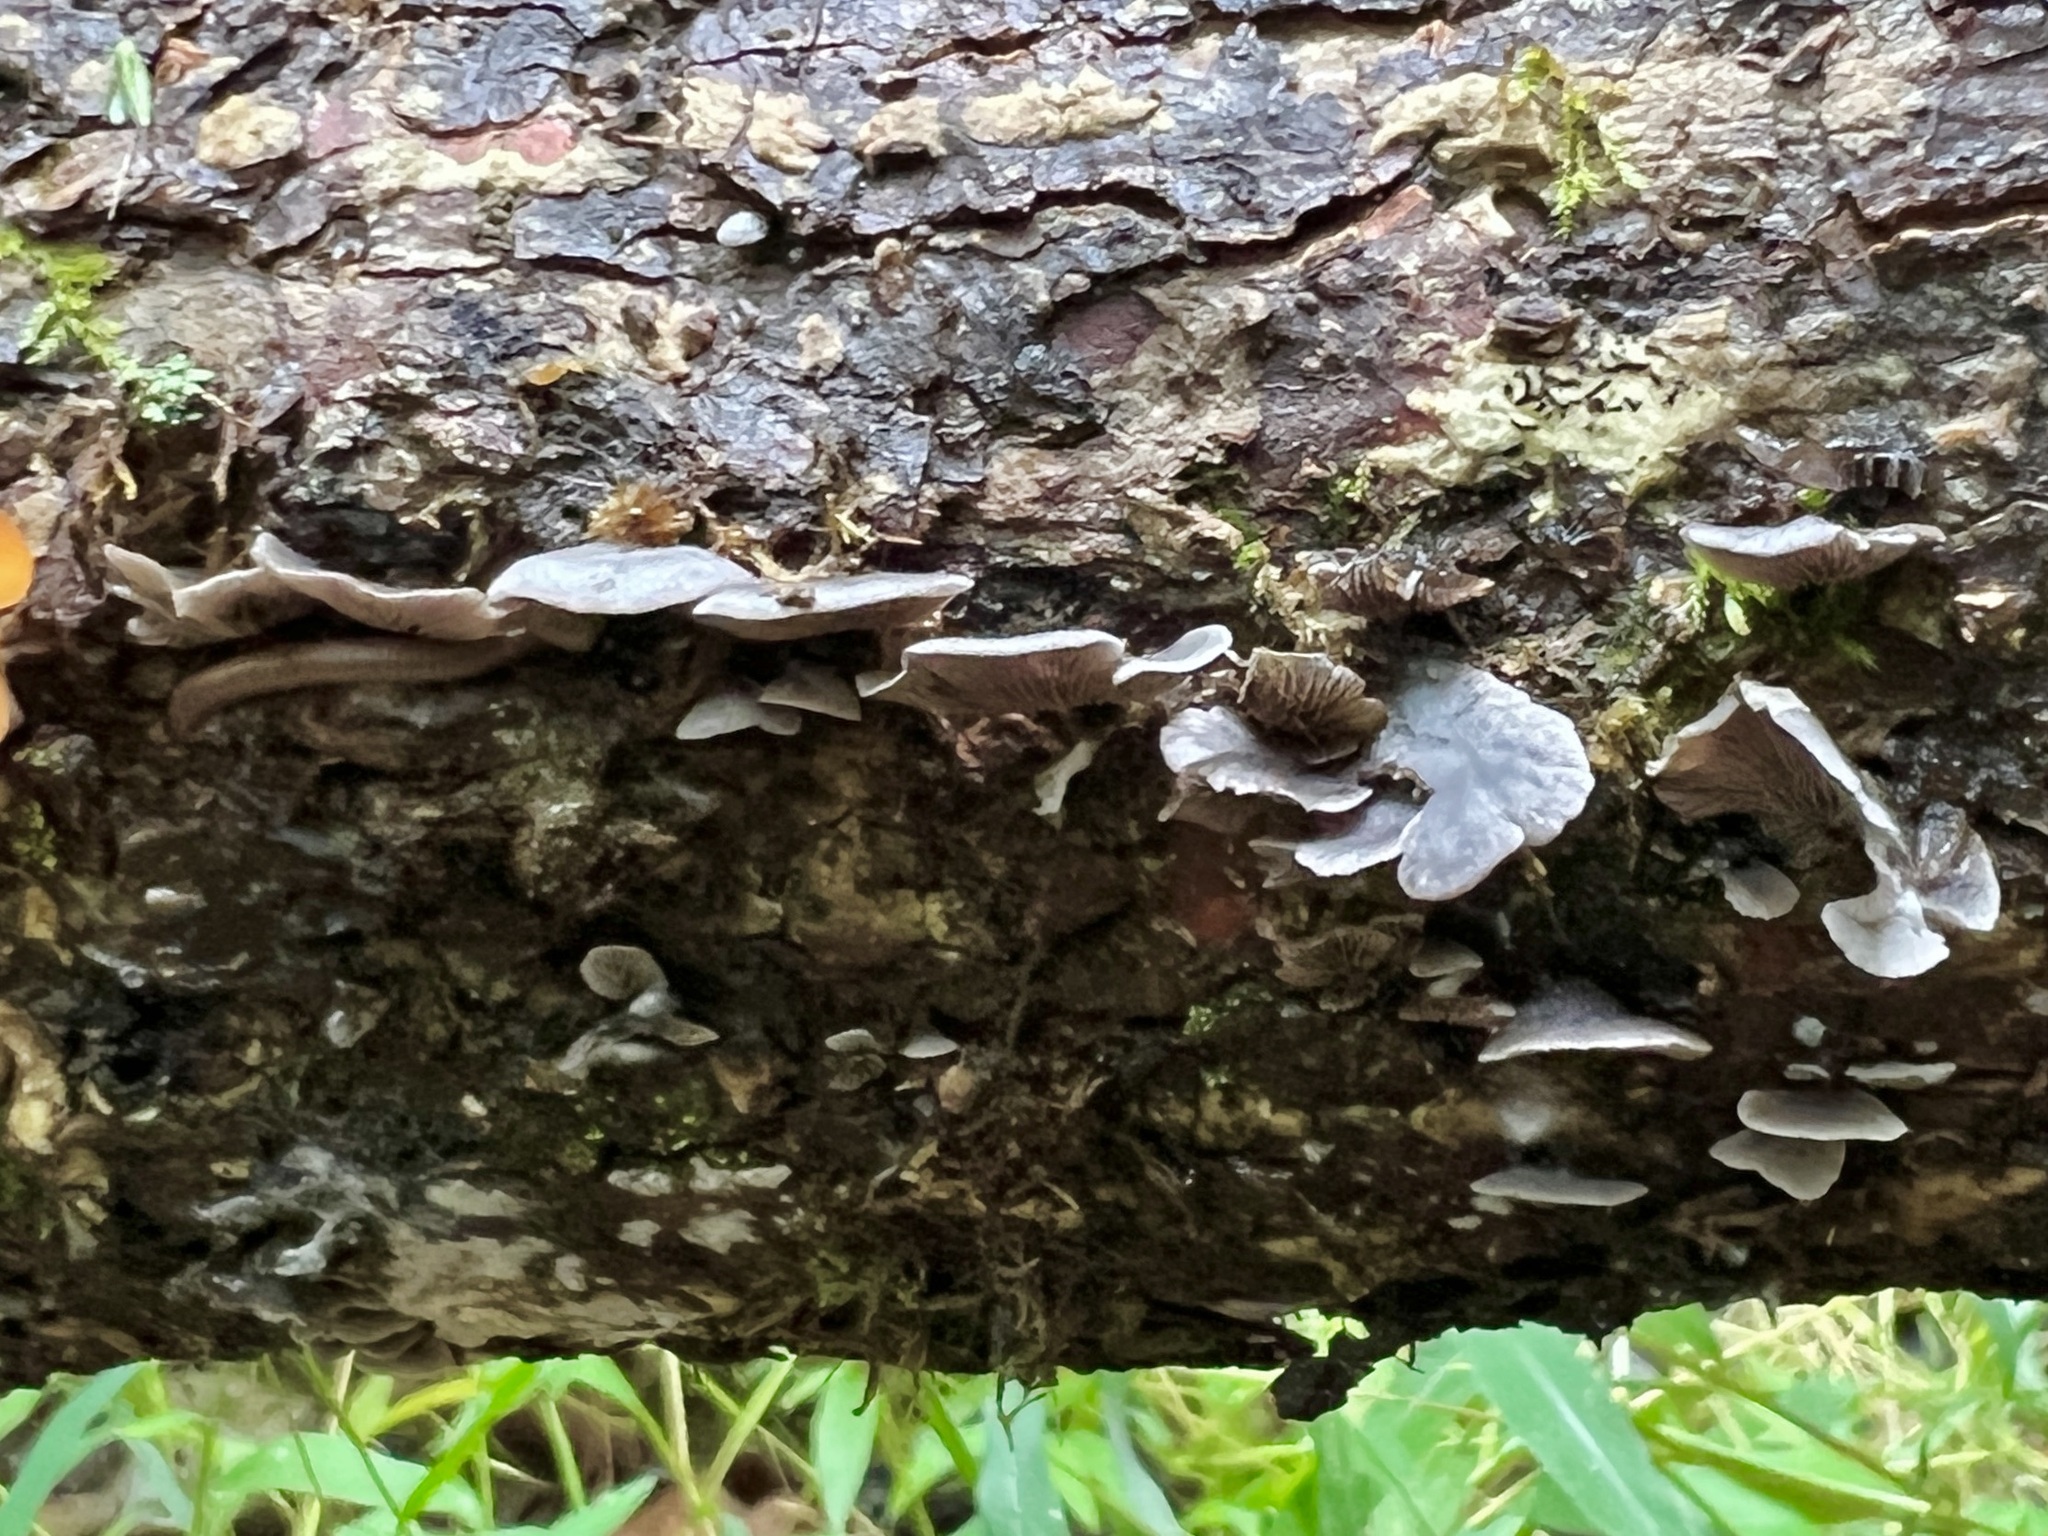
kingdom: Fungi
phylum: Basidiomycota
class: Agaricomycetes
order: Agaricales
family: Pleurotaceae
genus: Resupinatus
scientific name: Resupinatus applicatus
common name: Smoked oysterling
